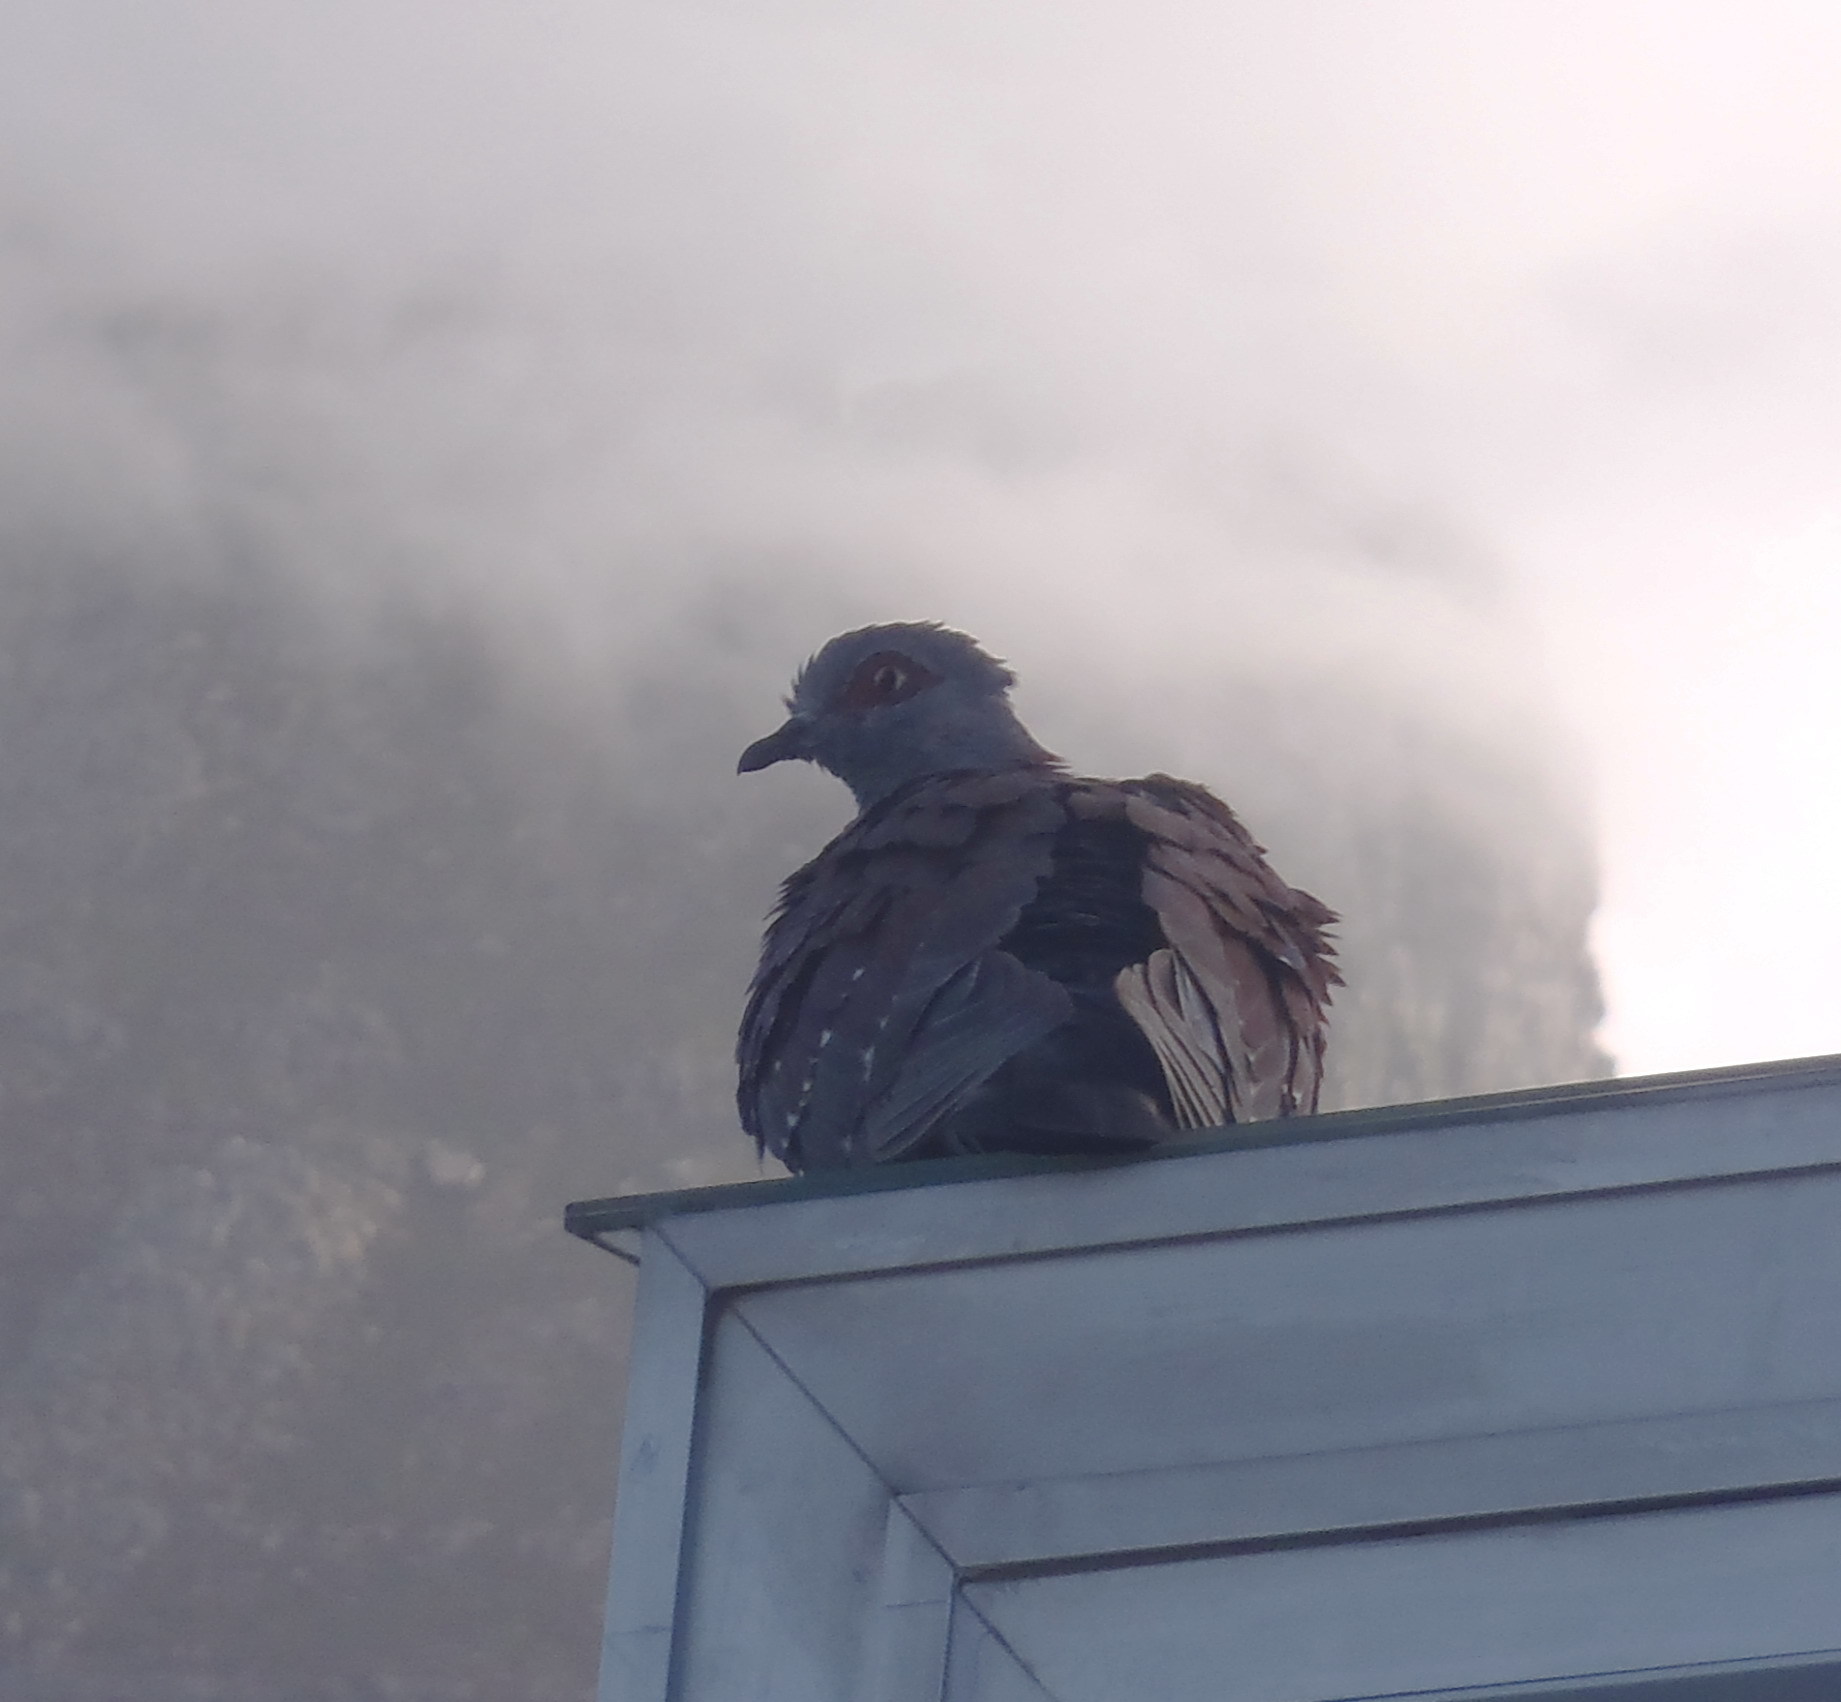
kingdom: Animalia
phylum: Chordata
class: Aves
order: Columbiformes
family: Columbidae
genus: Columba
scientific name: Columba guinea
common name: Speckled pigeon
